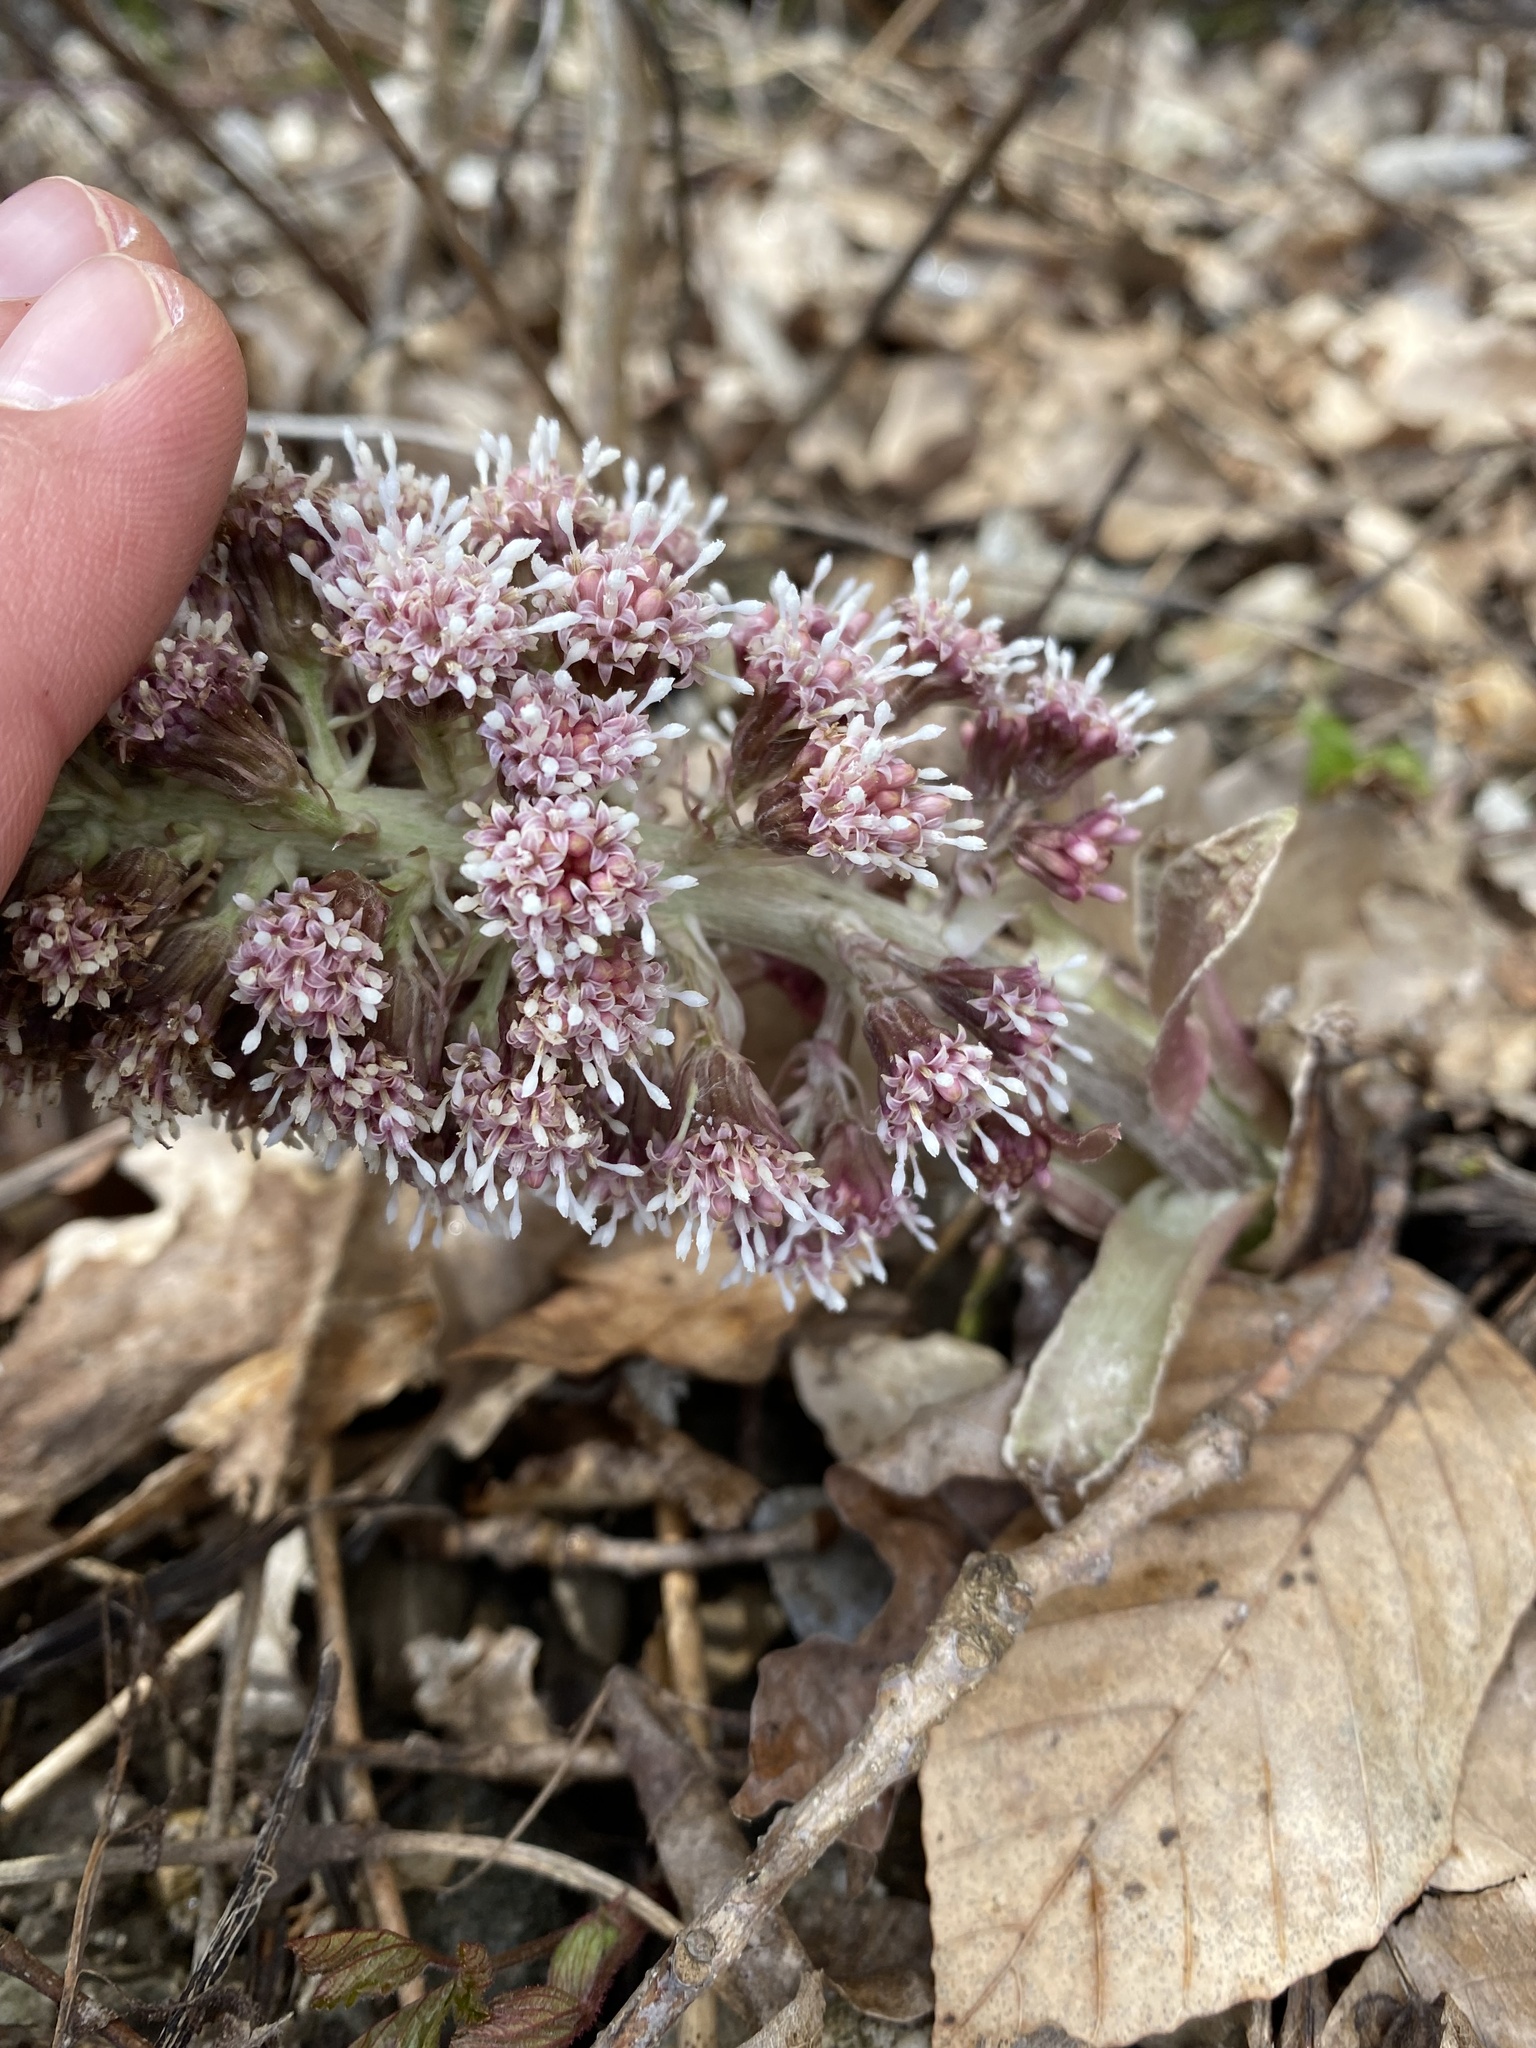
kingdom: Plantae
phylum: Tracheophyta
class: Magnoliopsida
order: Asterales
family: Asteraceae
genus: Petasites
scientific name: Petasites hybridus
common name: Butterbur
